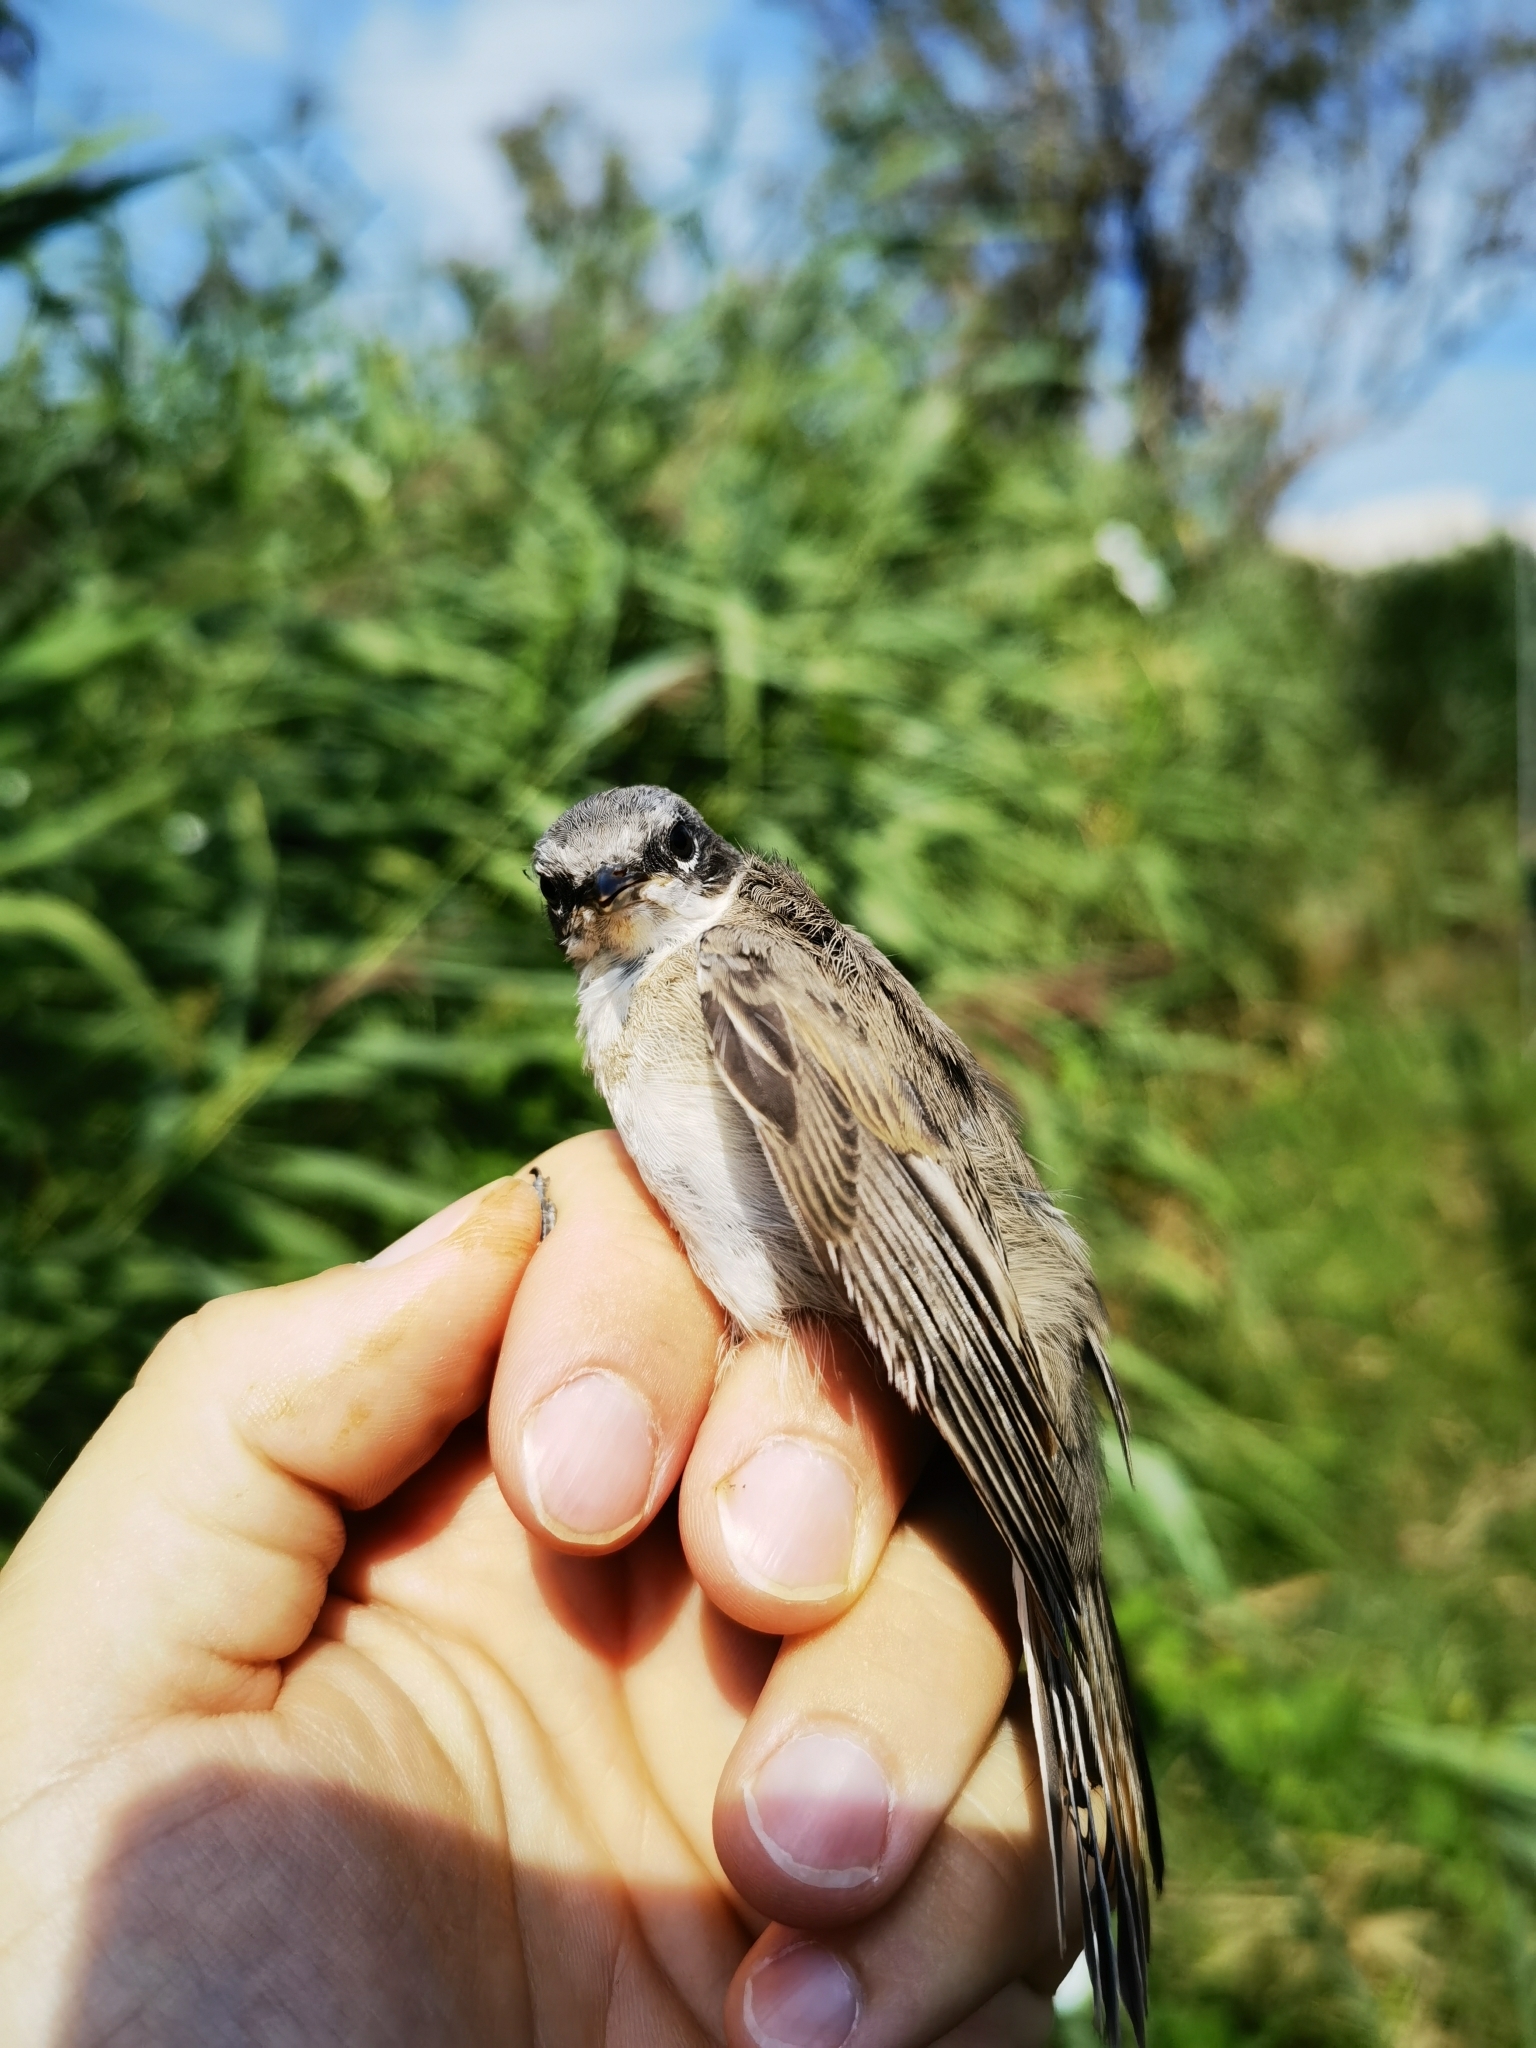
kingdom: Animalia
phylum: Chordata
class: Aves
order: Passeriformes
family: Sylviidae
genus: Sylvia
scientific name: Sylvia curruca
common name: Lesser whitethroat
